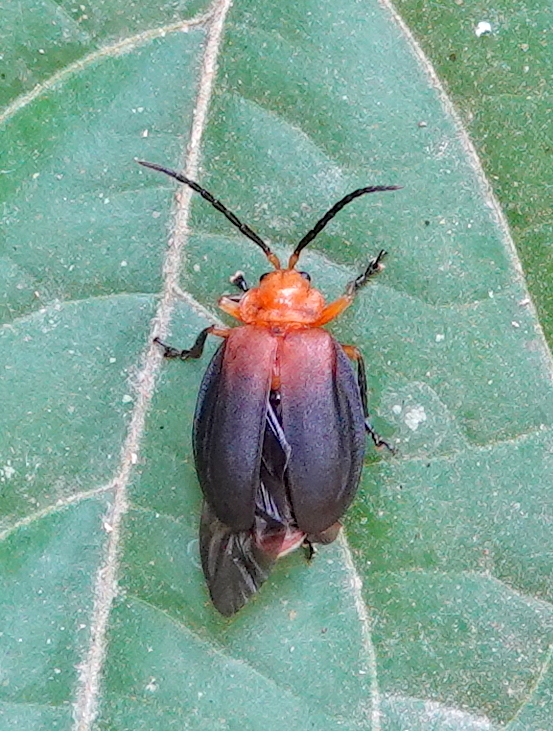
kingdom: Animalia
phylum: Arthropoda
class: Insecta
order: Coleoptera
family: Chrysomelidae
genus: Platycesta
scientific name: Platycesta
